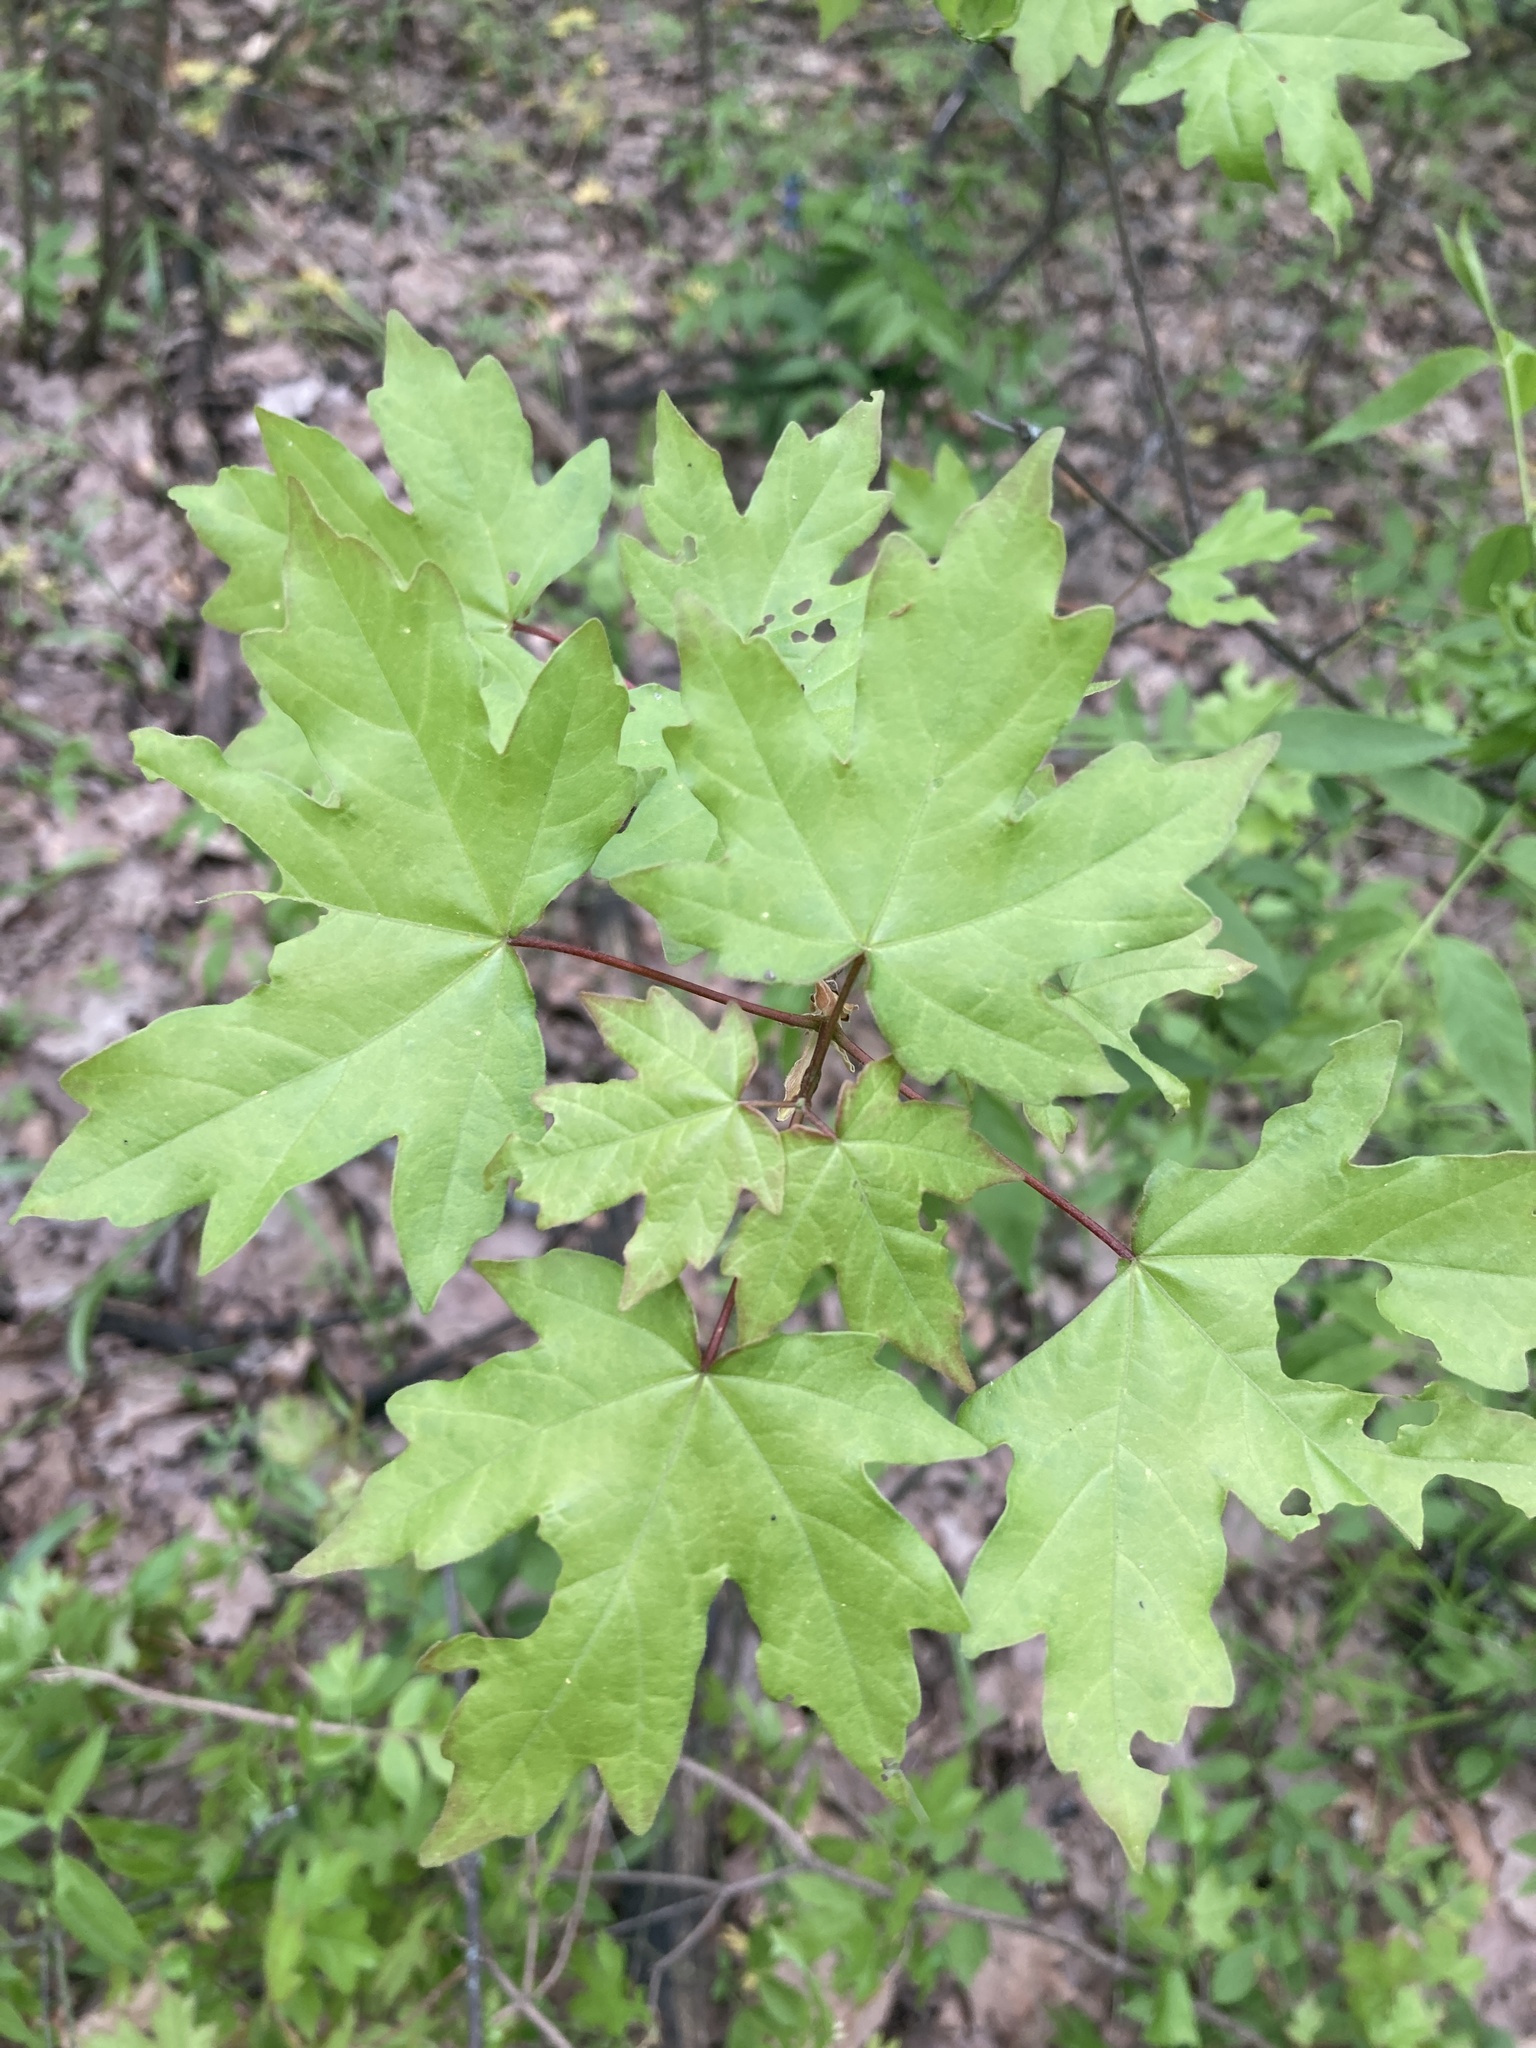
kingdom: Plantae
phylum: Tracheophyta
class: Magnoliopsida
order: Sapindales
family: Sapindaceae
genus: Acer
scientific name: Acer campestre
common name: Field maple
